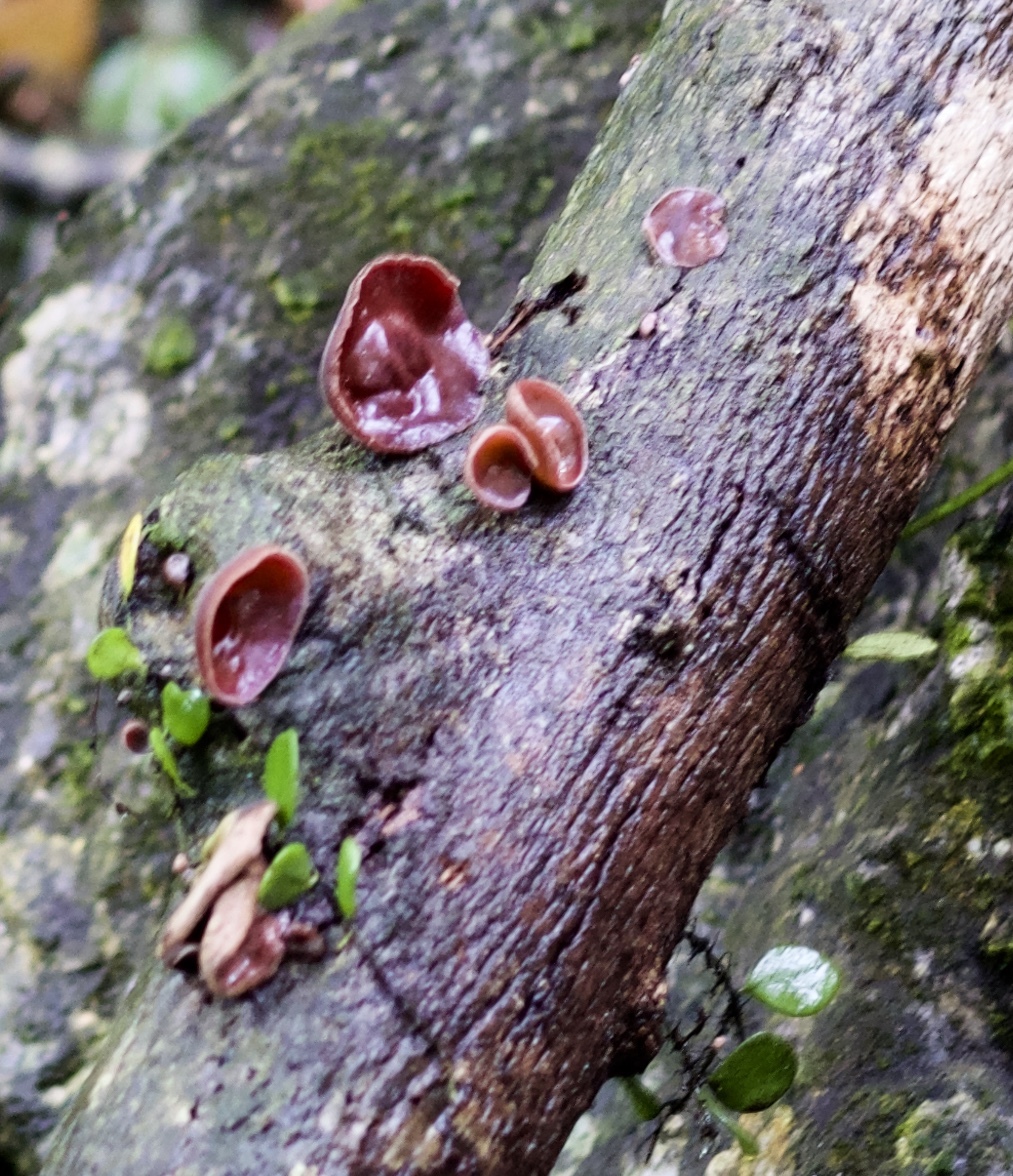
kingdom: Fungi
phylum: Basidiomycota
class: Agaricomycetes
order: Auriculariales
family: Auriculariaceae
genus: Auricularia
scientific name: Auricularia cornea
